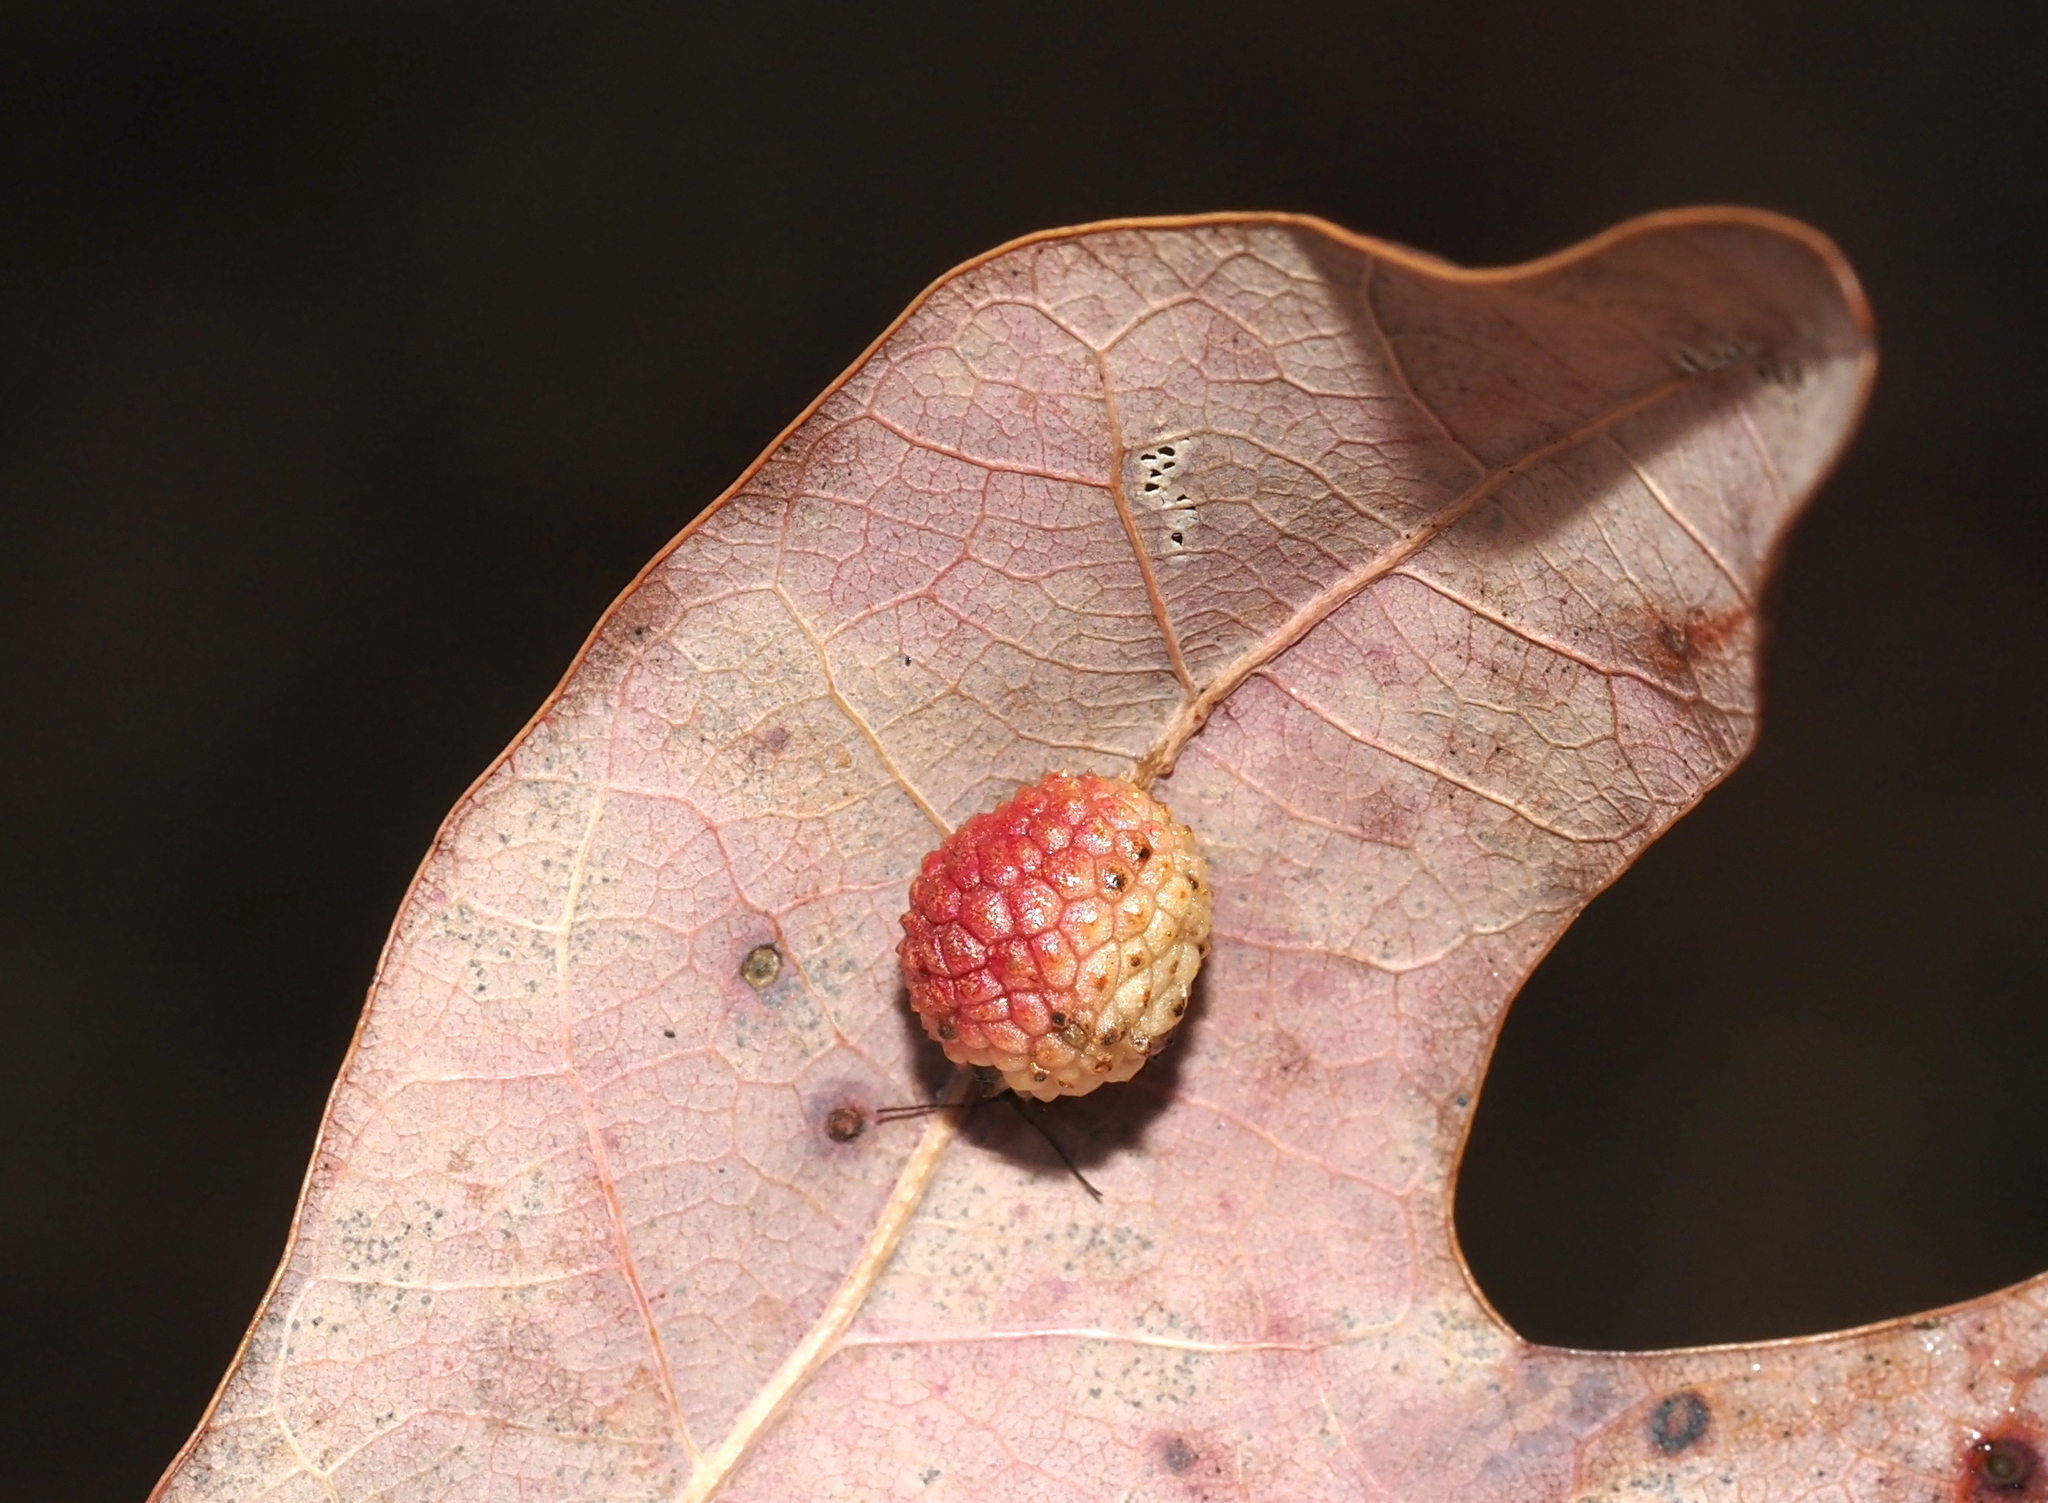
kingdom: Animalia
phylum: Arthropoda
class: Insecta
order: Hymenoptera
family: Cynipidae
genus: Acraspis
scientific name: Acraspis
